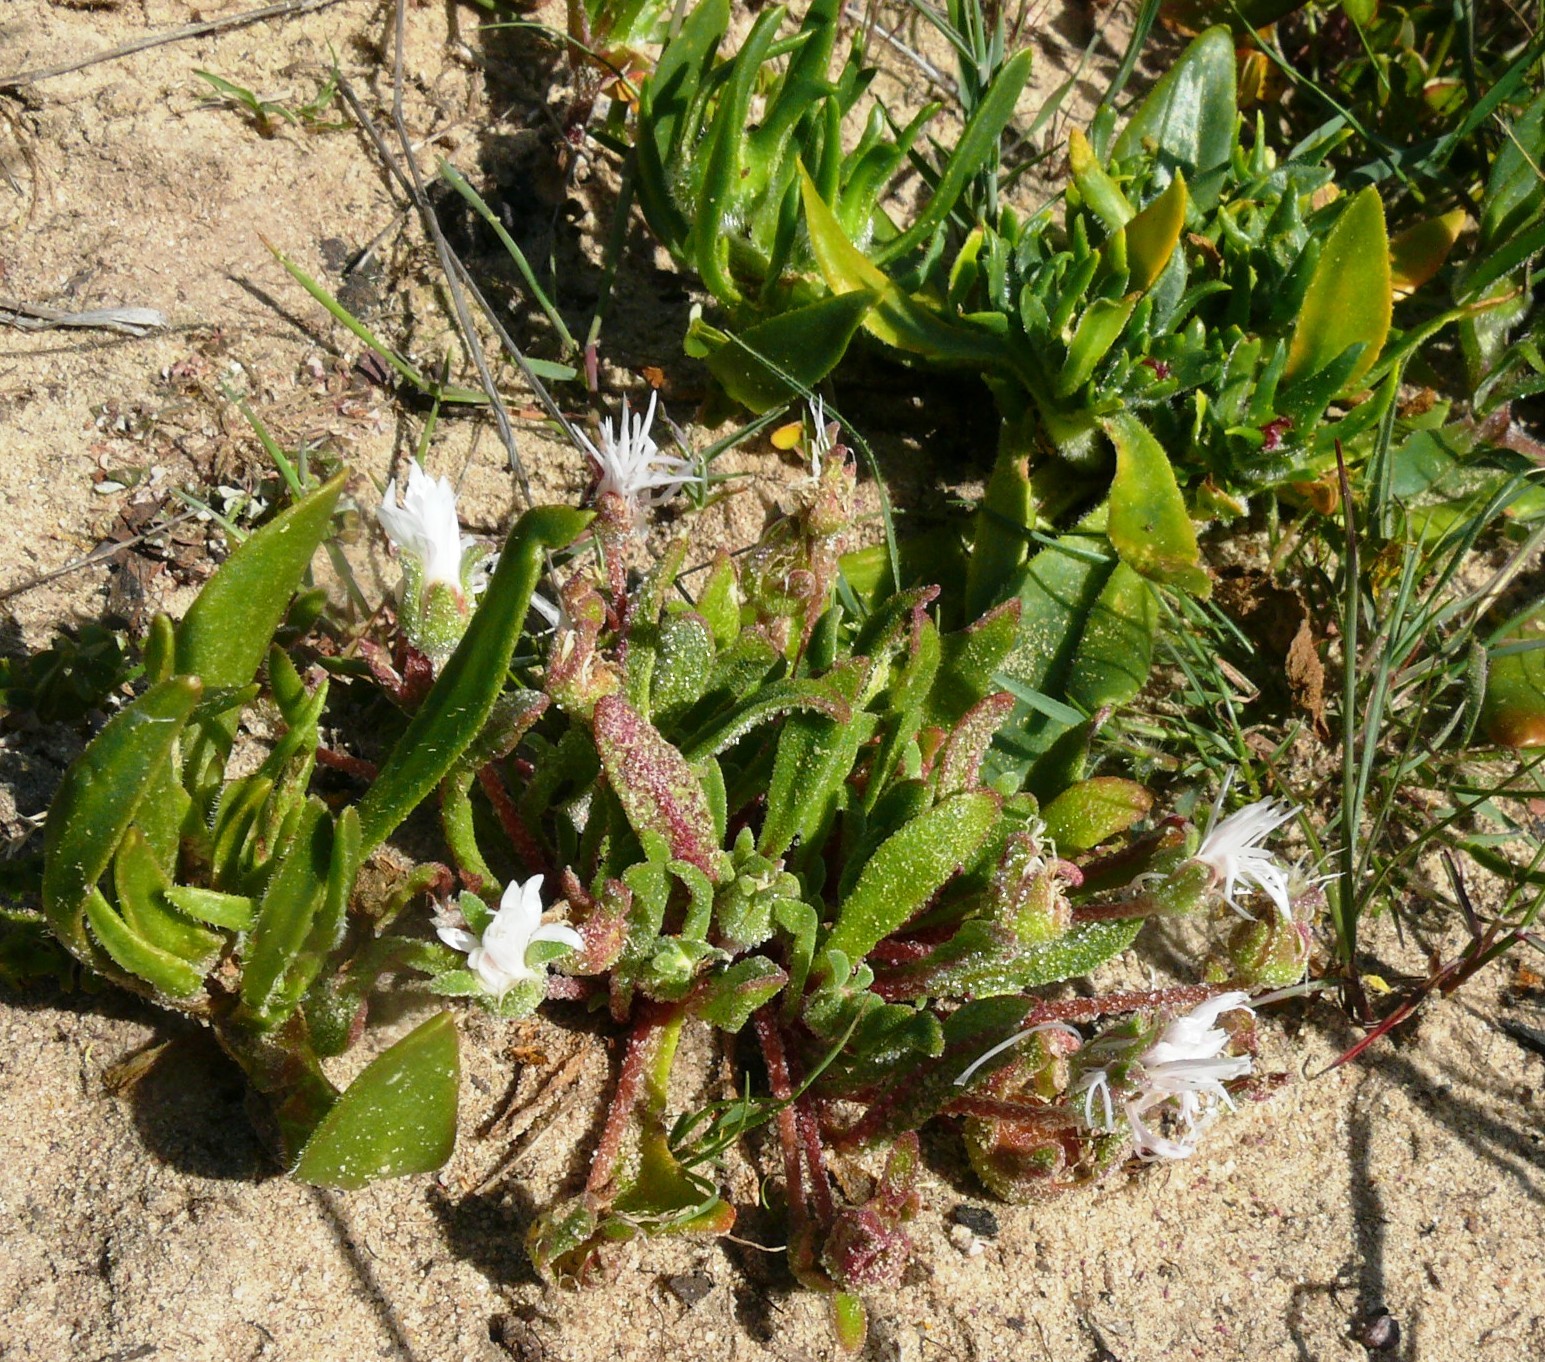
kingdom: Plantae
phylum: Tracheophyta
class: Magnoliopsida
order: Caryophyllales
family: Aizoaceae
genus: Cleretum
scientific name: Cleretum bellidiforme
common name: Livingstone daisy
